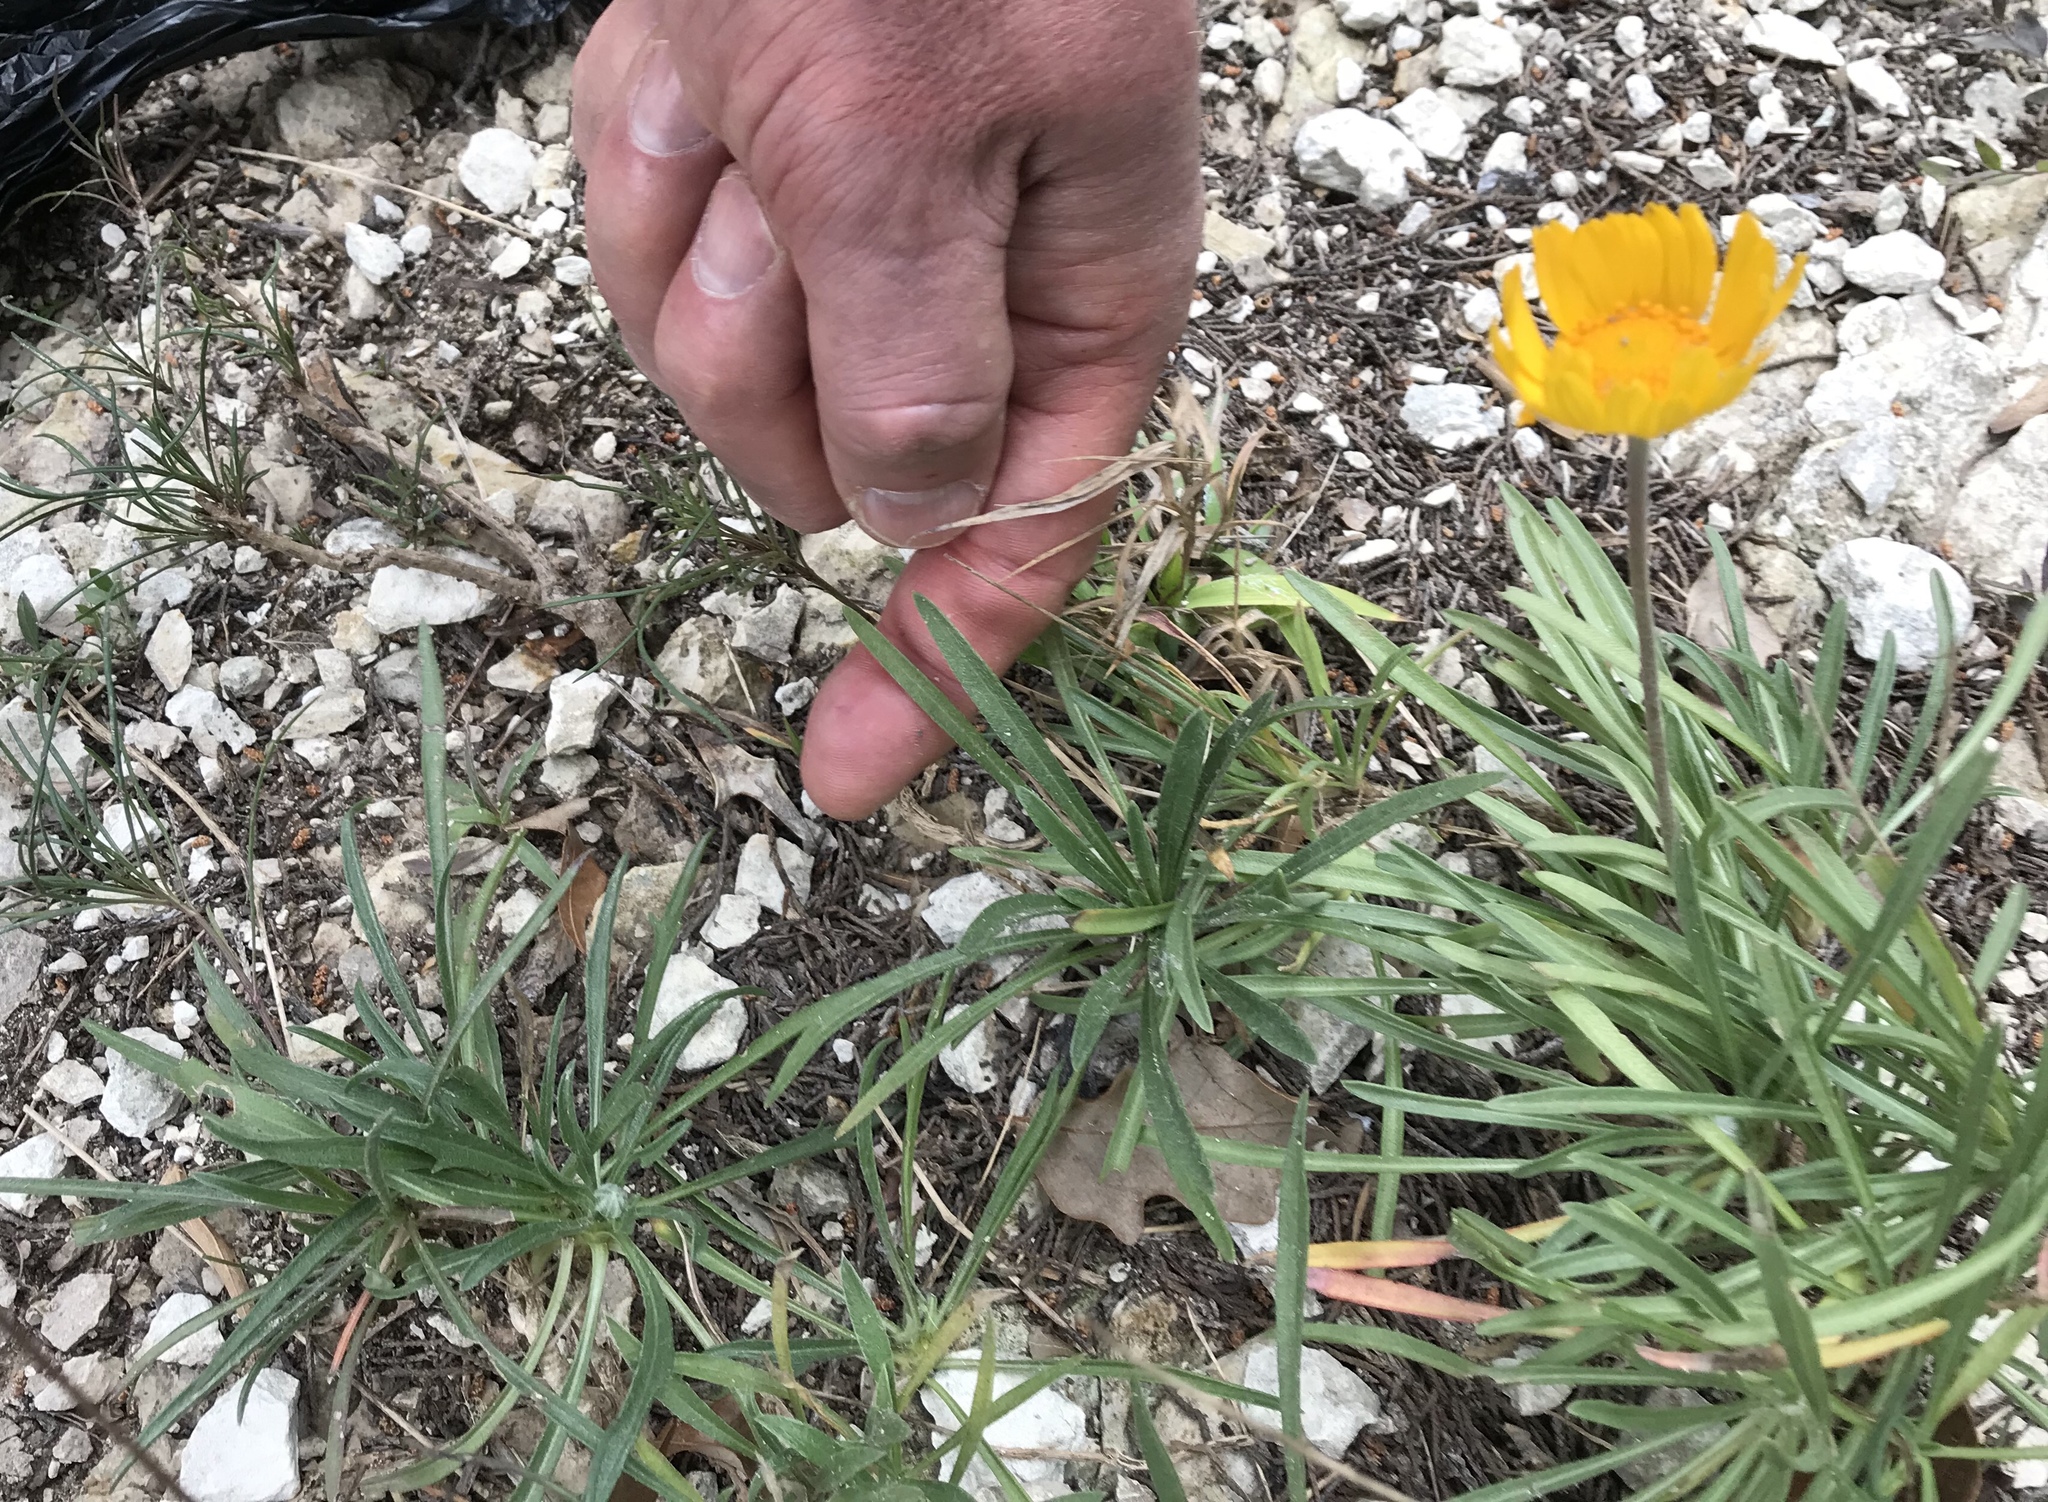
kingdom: Plantae
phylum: Tracheophyta
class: Magnoliopsida
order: Asterales
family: Asteraceae
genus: Tetraneuris
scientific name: Tetraneuris scaposa
